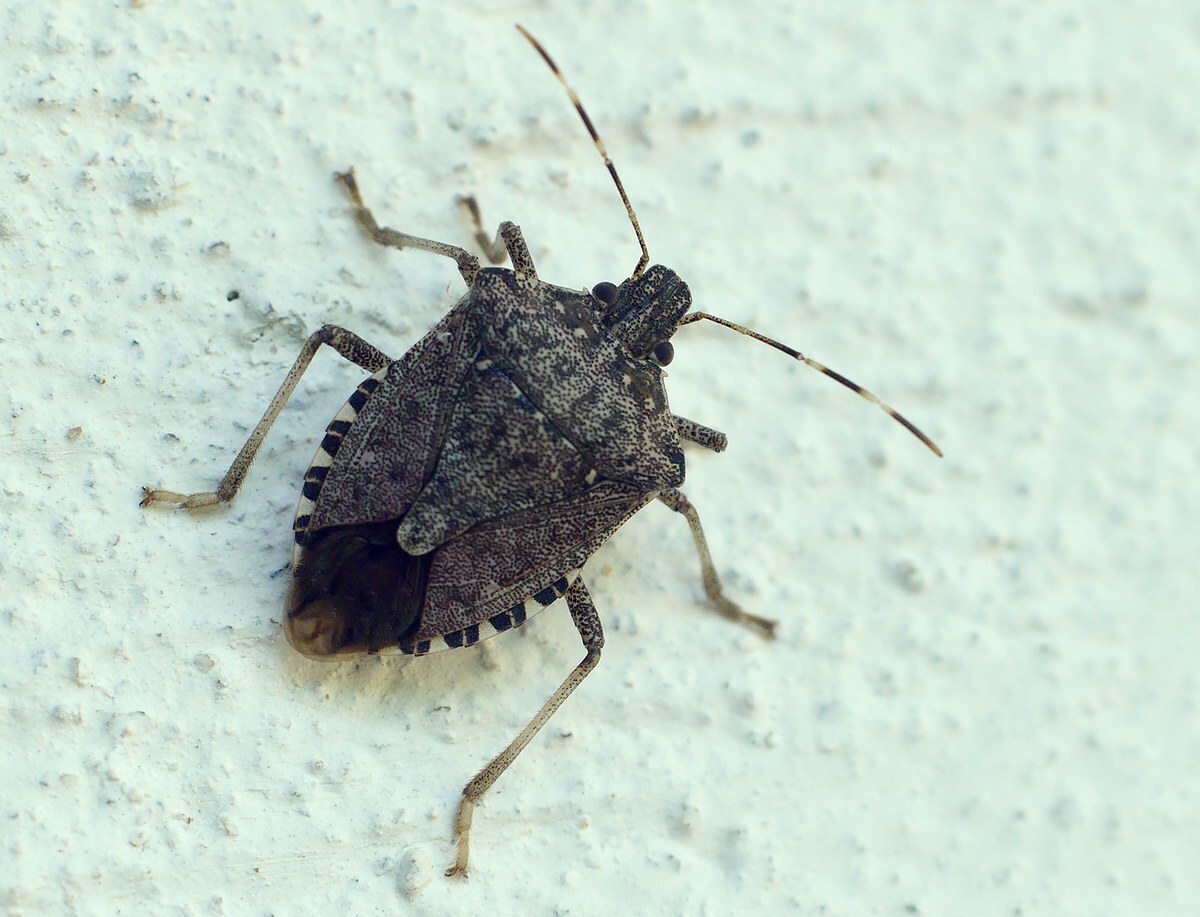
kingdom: Animalia
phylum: Arthropoda
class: Insecta
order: Hemiptera
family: Pentatomidae
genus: Halyomorpha
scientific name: Halyomorpha halys
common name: Brown marmorated stink bug
